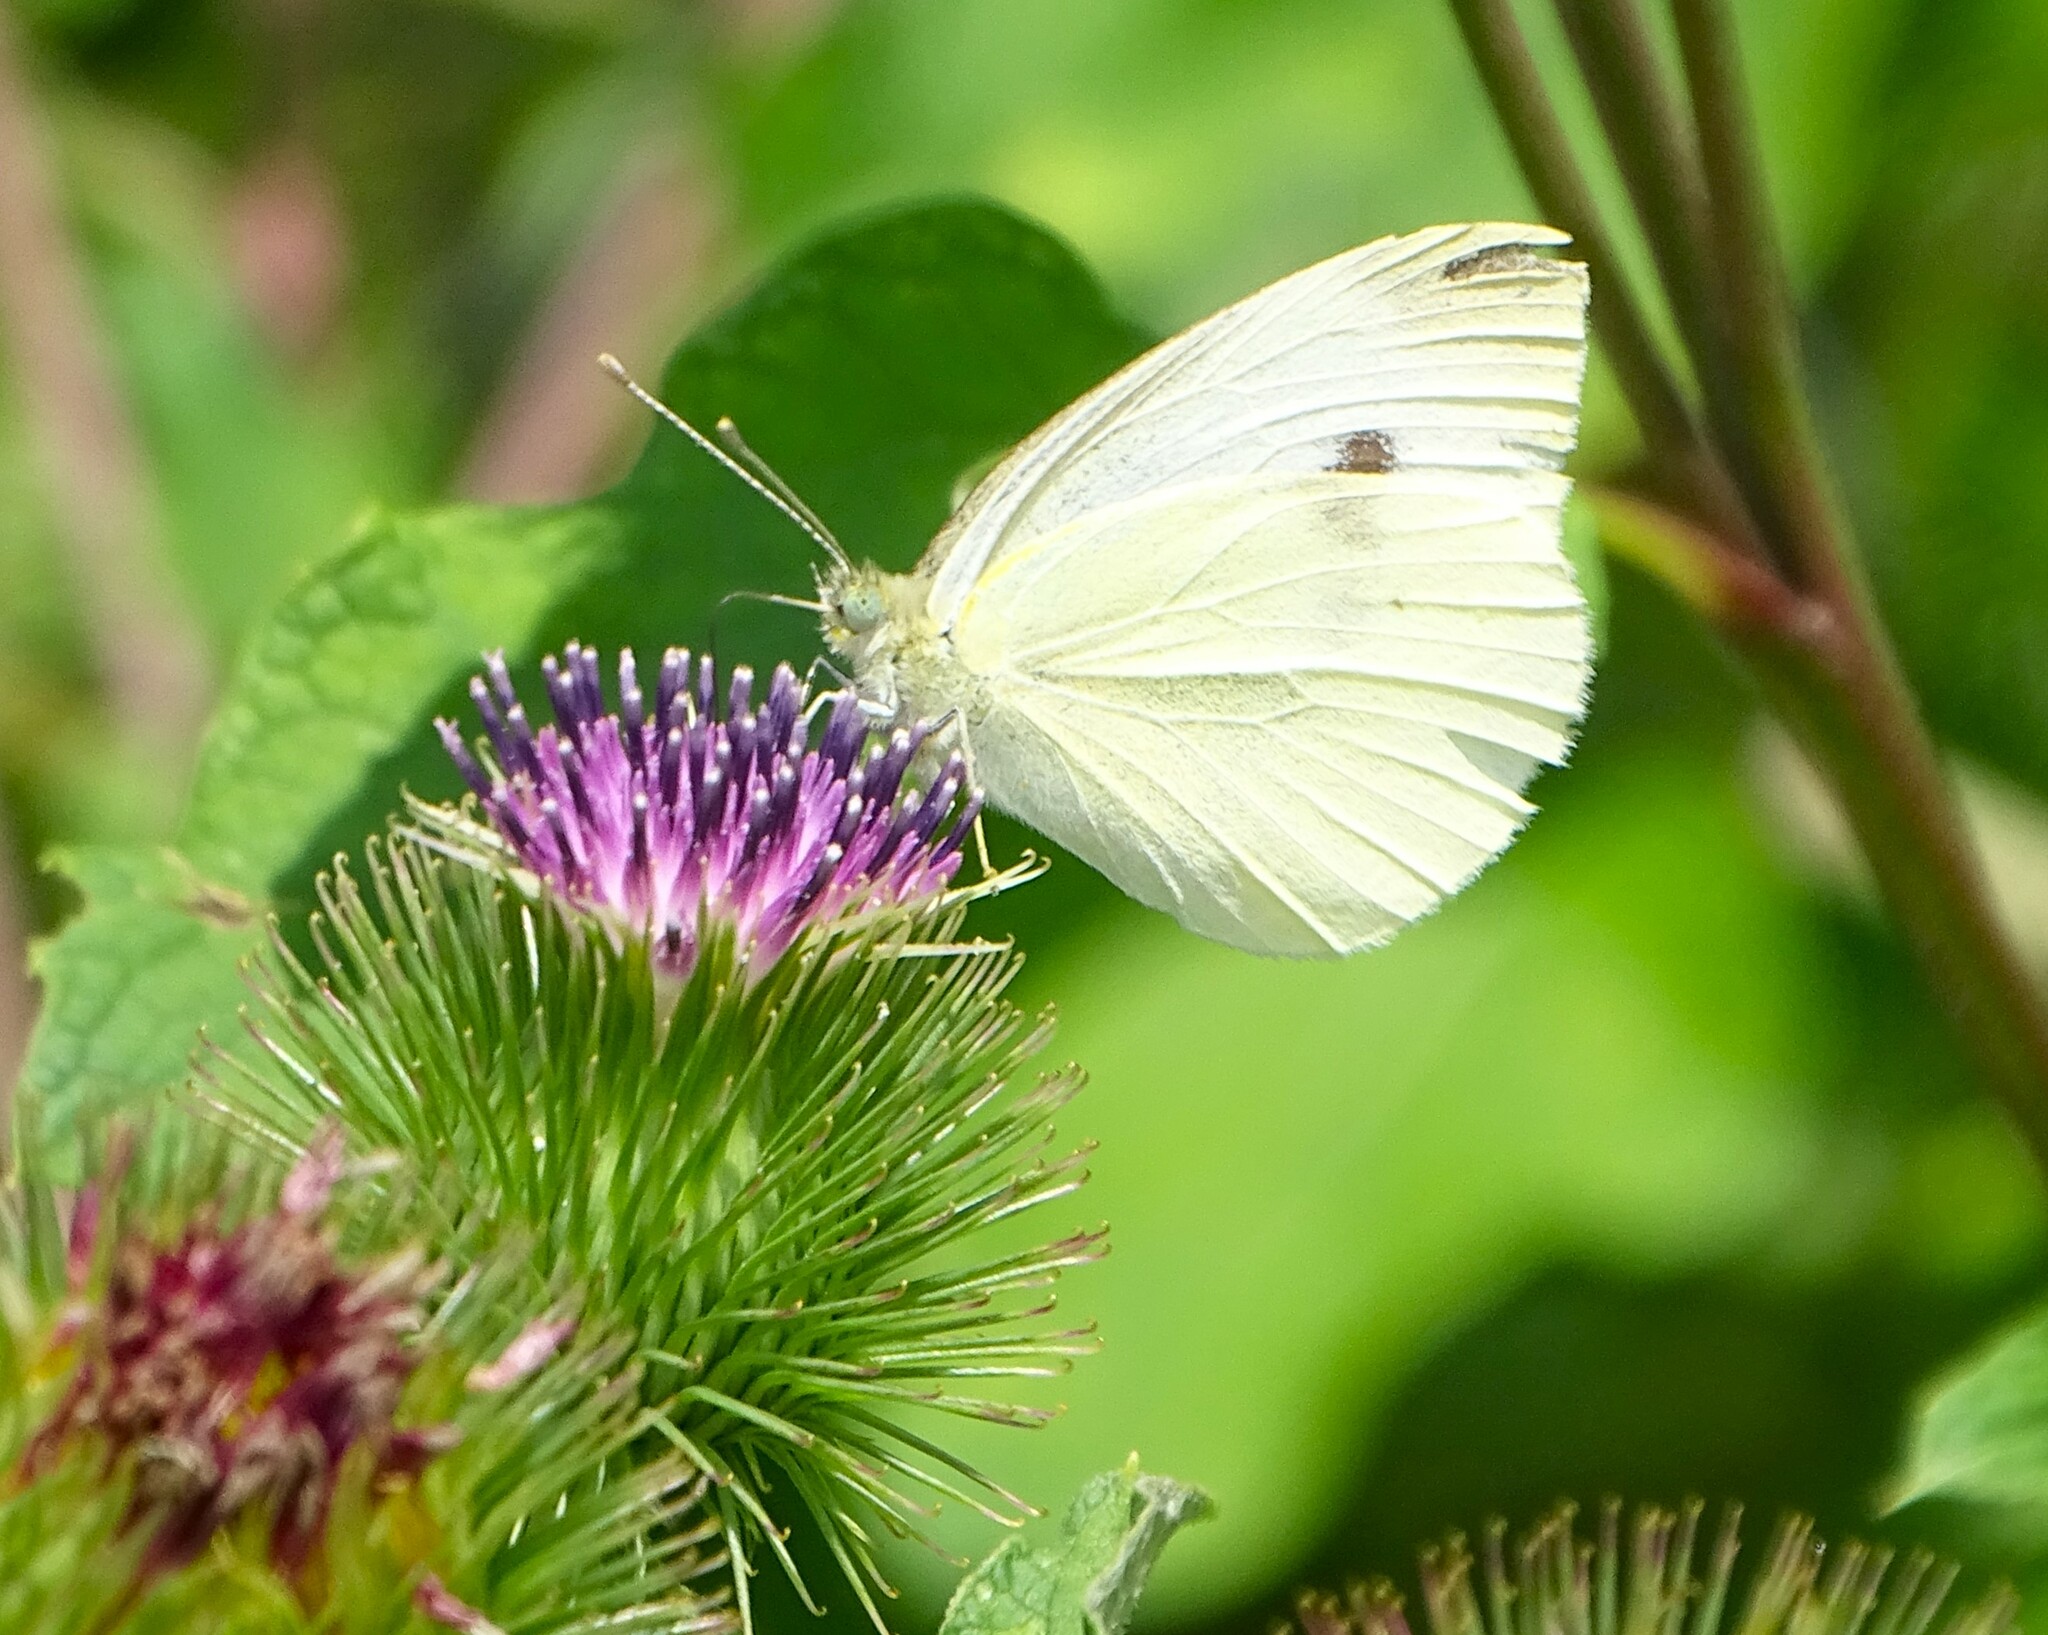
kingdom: Animalia
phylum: Arthropoda
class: Insecta
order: Lepidoptera
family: Pieridae
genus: Pieris
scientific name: Pieris rapae
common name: Small white
